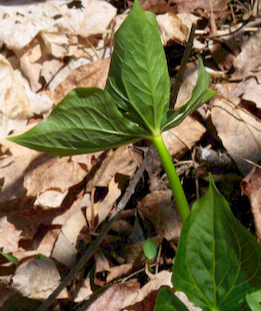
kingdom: Plantae
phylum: Tracheophyta
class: Liliopsida
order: Liliales
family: Melanthiaceae
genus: Trillium
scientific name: Trillium erectum
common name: Purple trillium
